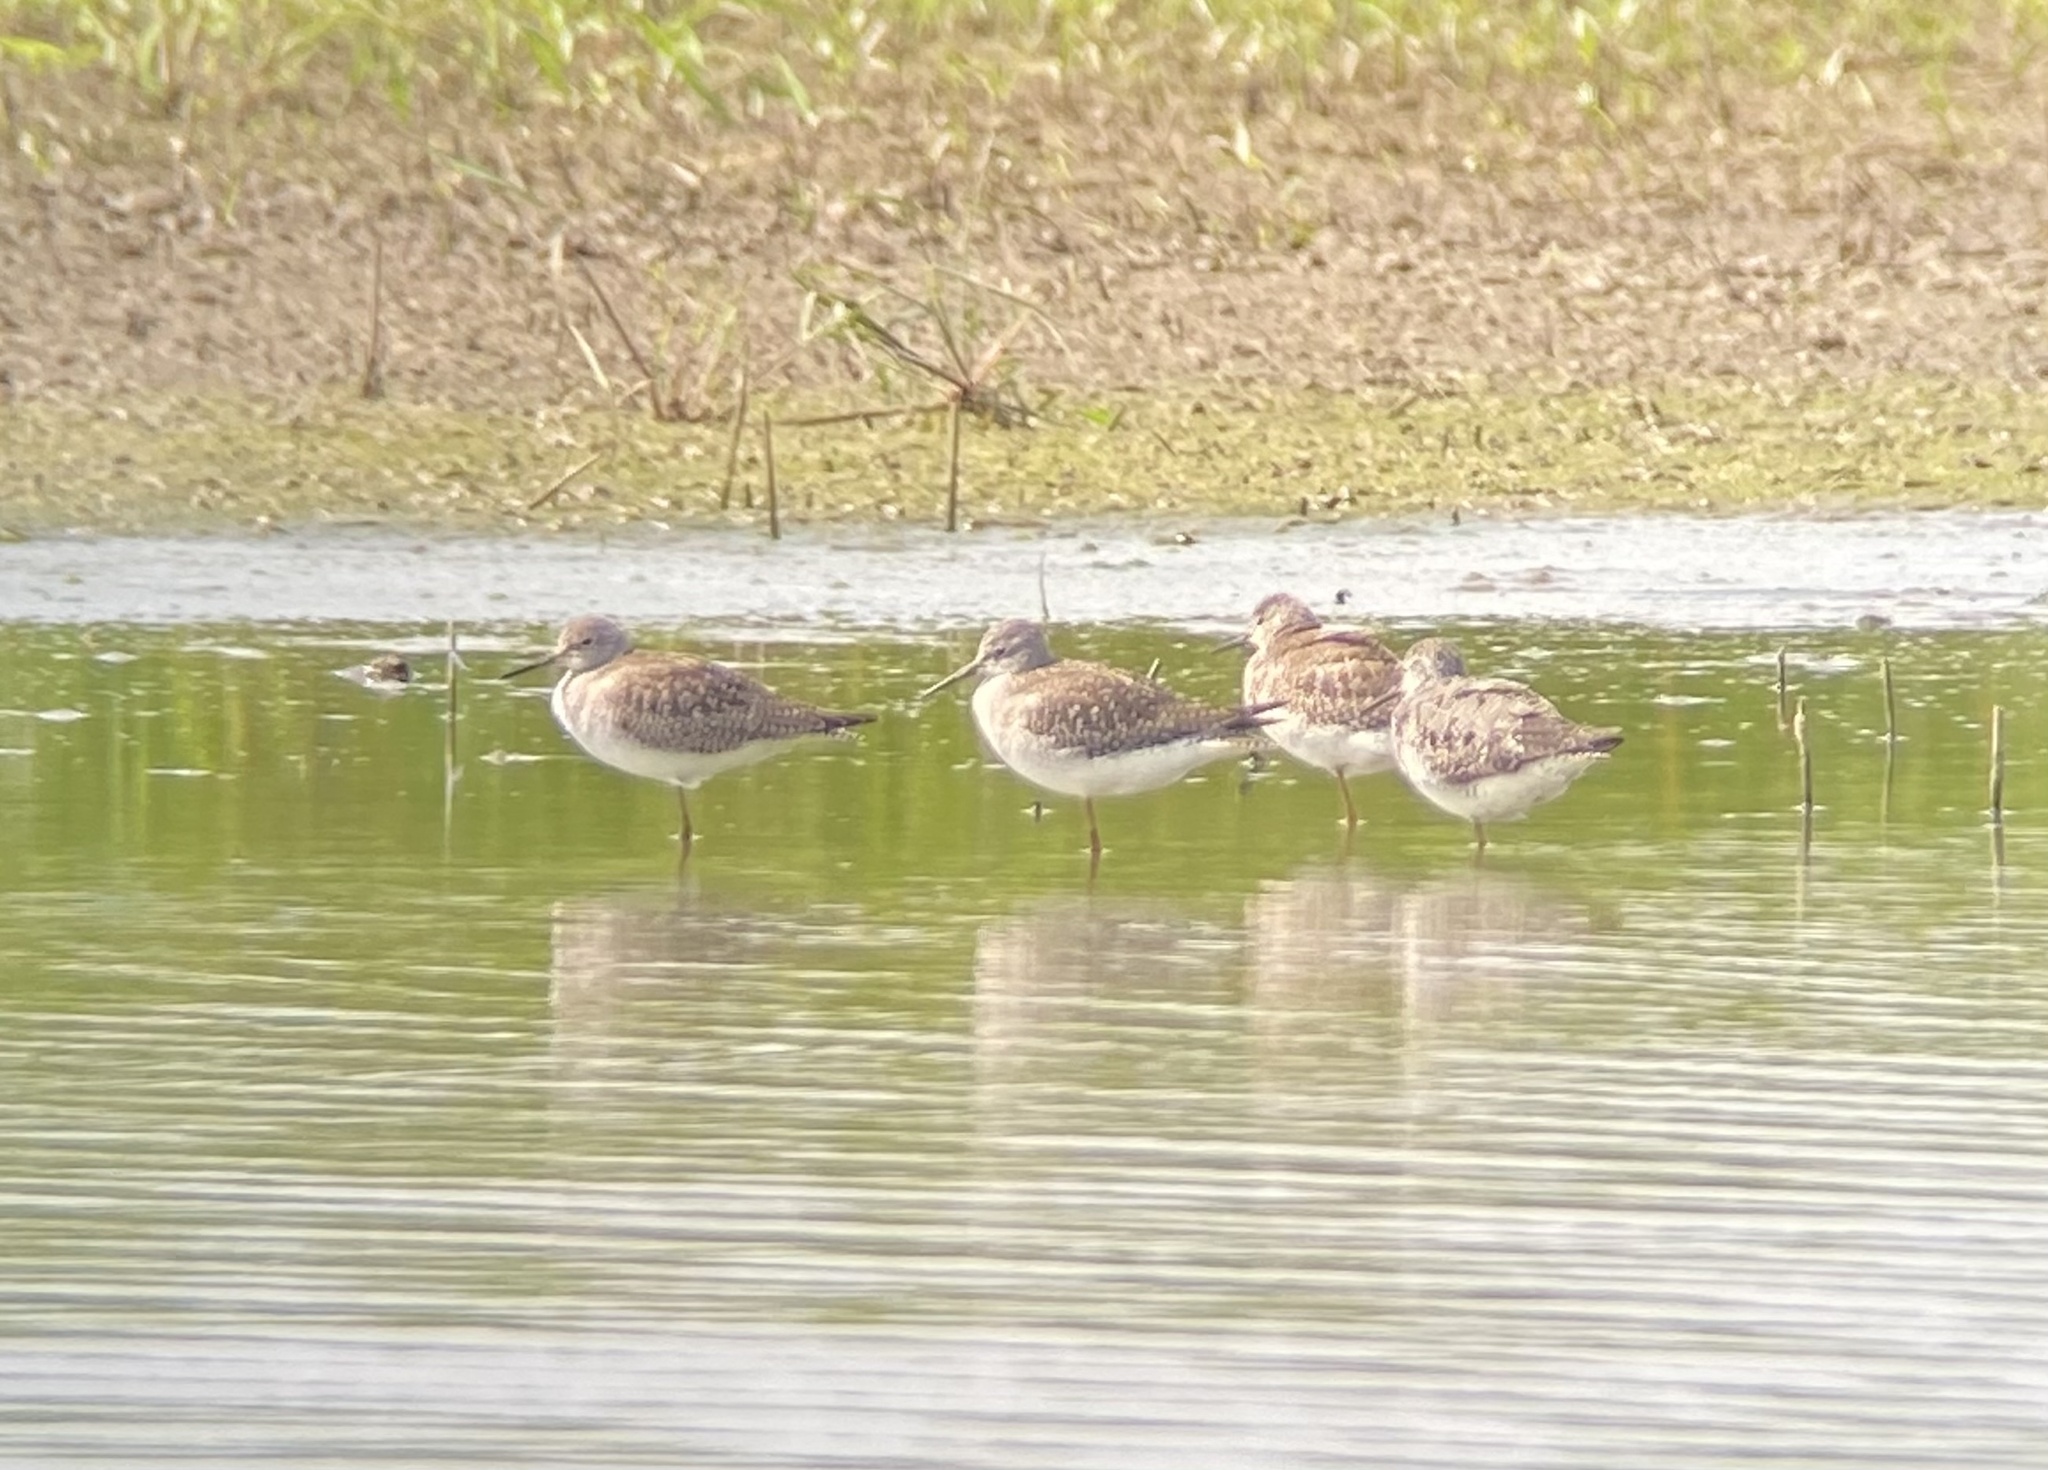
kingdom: Animalia
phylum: Chordata
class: Aves
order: Charadriiformes
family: Scolopacidae
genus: Tringa
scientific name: Tringa melanoleuca
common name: Greater yellowlegs
